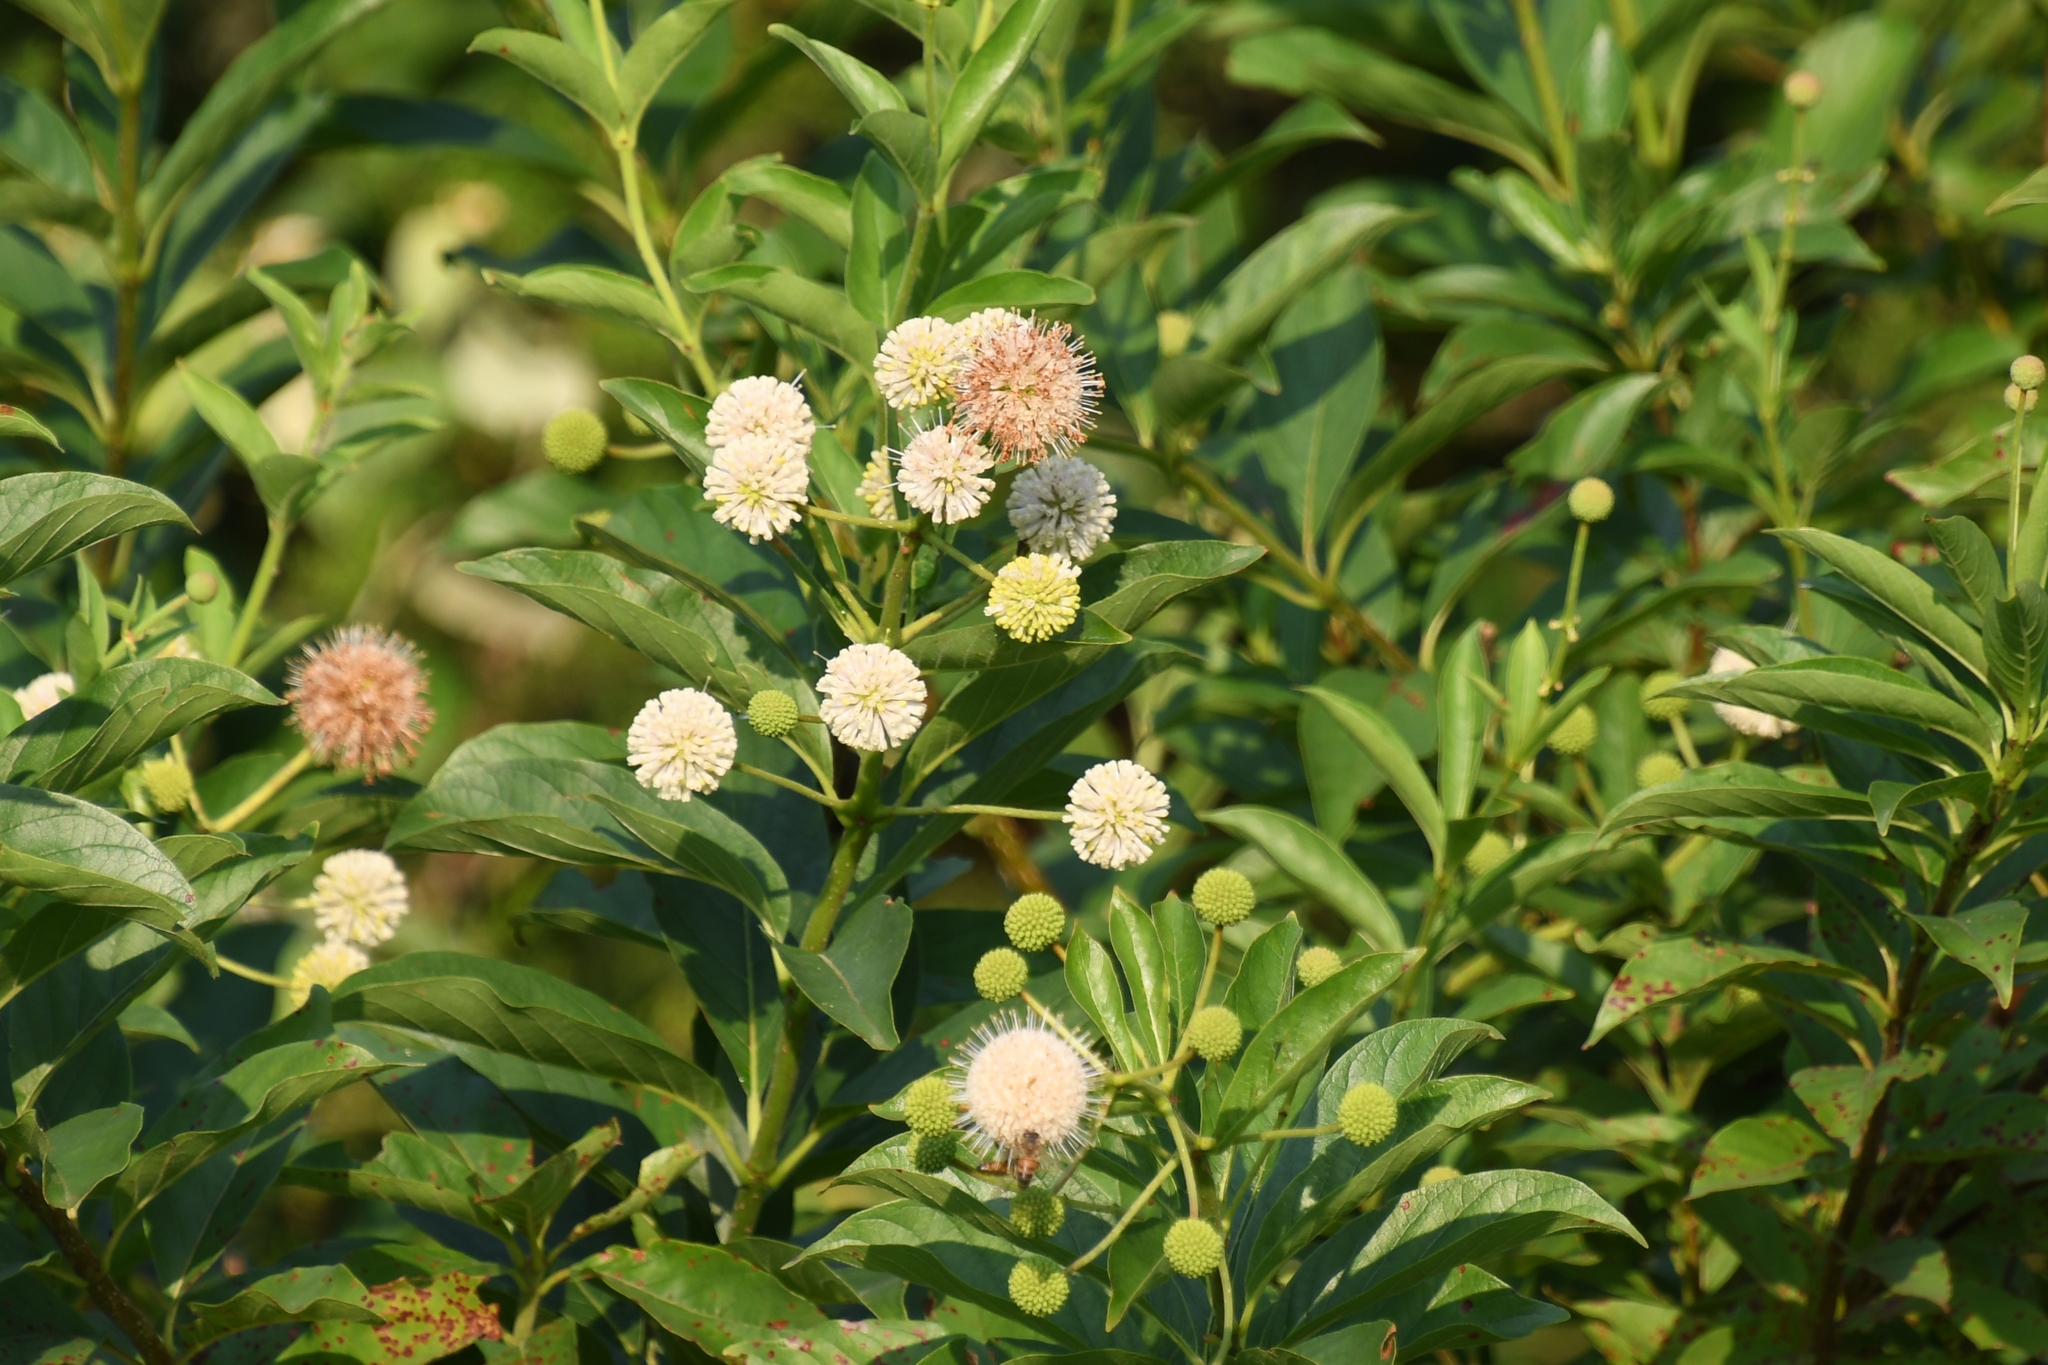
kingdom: Plantae
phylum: Tracheophyta
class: Magnoliopsida
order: Gentianales
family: Rubiaceae
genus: Cephalanthus
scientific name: Cephalanthus occidentalis
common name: Button-willow
